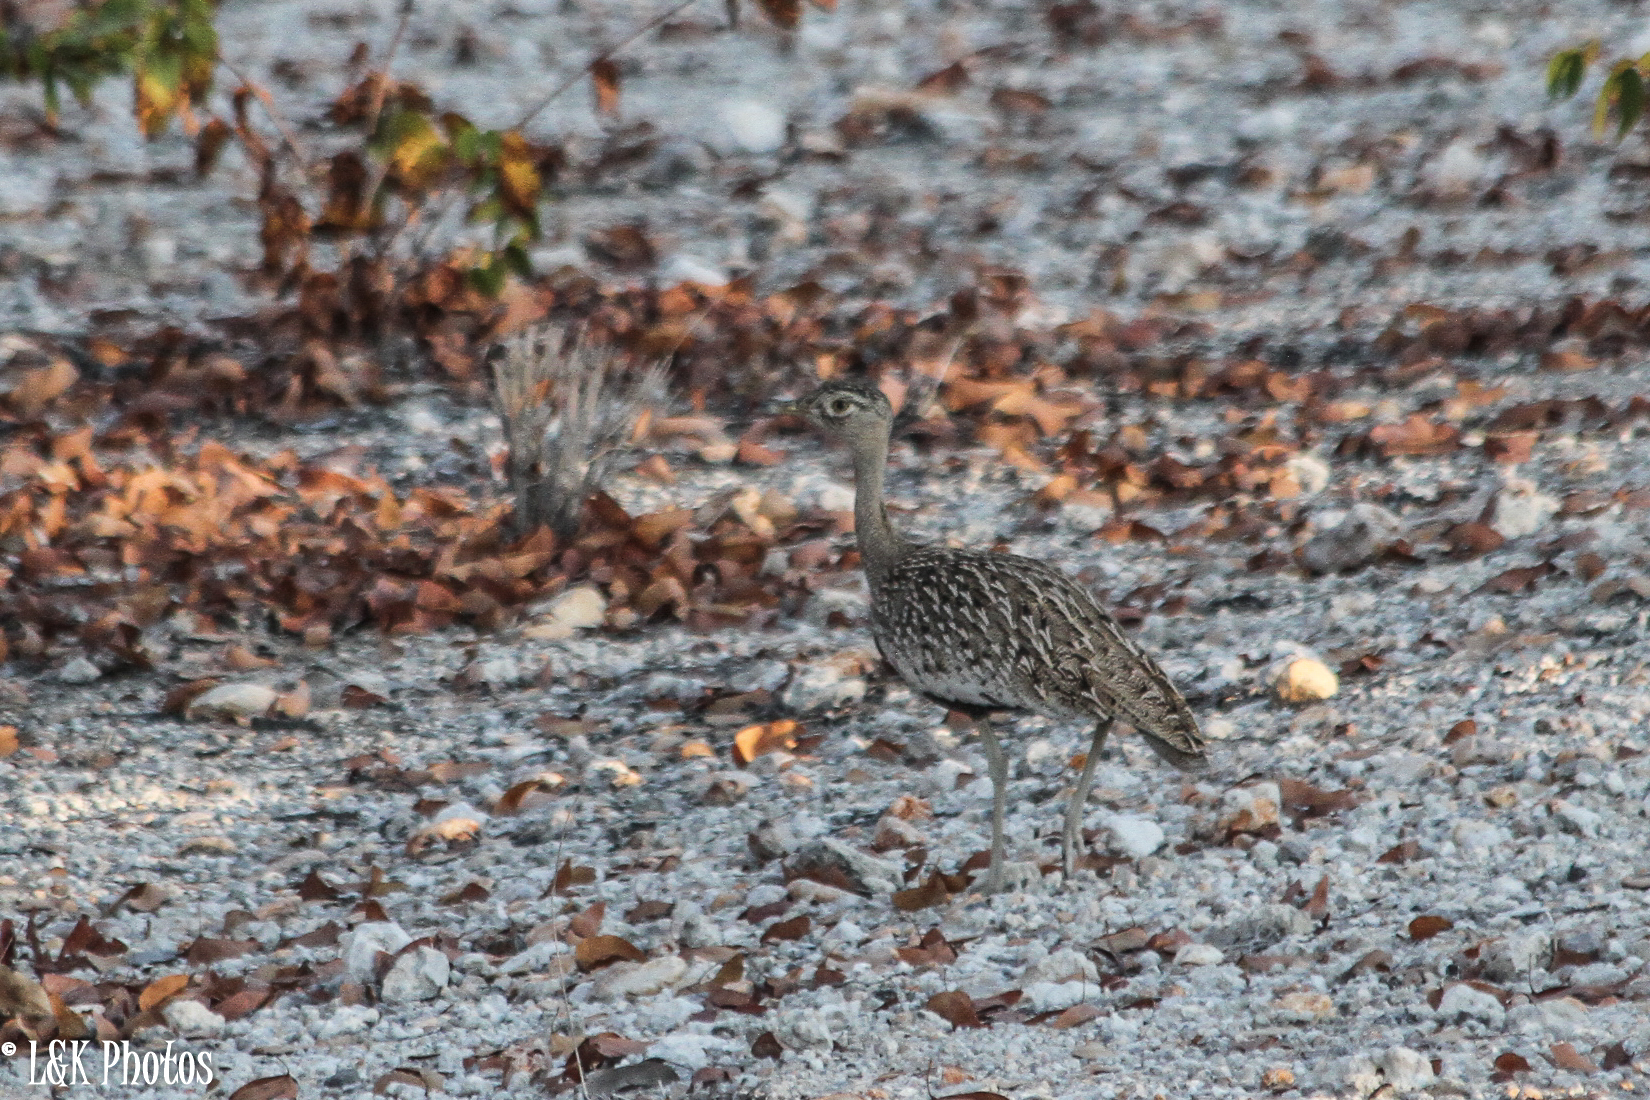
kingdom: Animalia
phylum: Chordata
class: Aves
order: Otidiformes
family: Otididae
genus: Lophotis
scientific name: Lophotis ruficrista
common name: Red-crested korhaan
